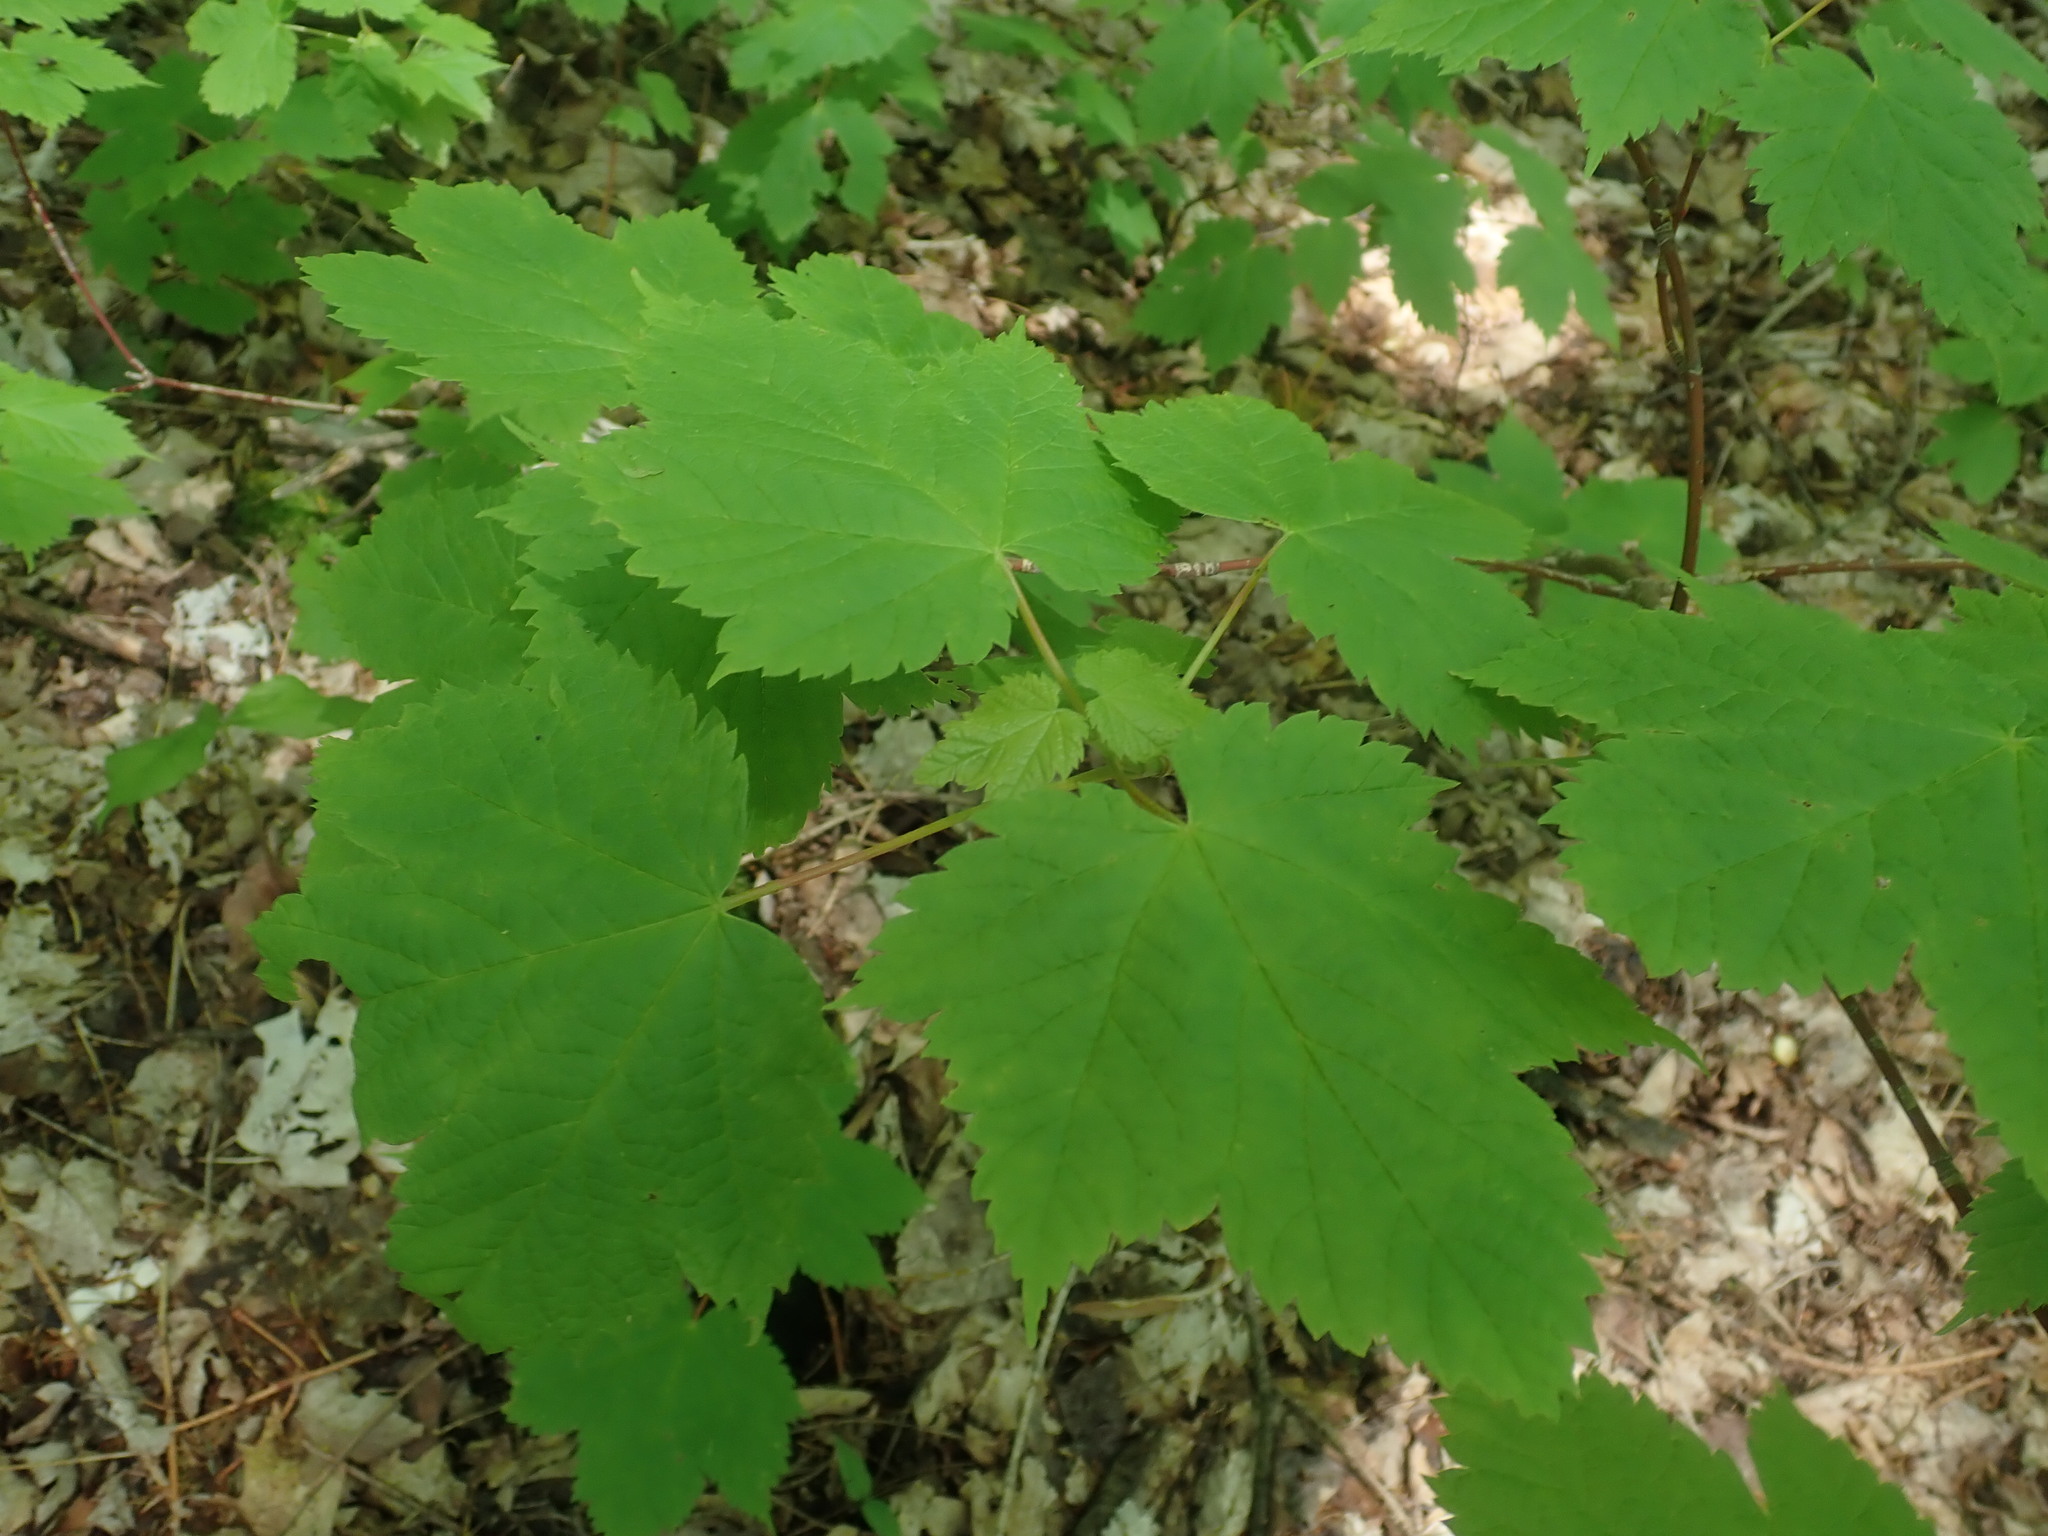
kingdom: Plantae
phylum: Tracheophyta
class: Magnoliopsida
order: Sapindales
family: Sapindaceae
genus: Acer
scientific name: Acer spicatum
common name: Mountain maple
